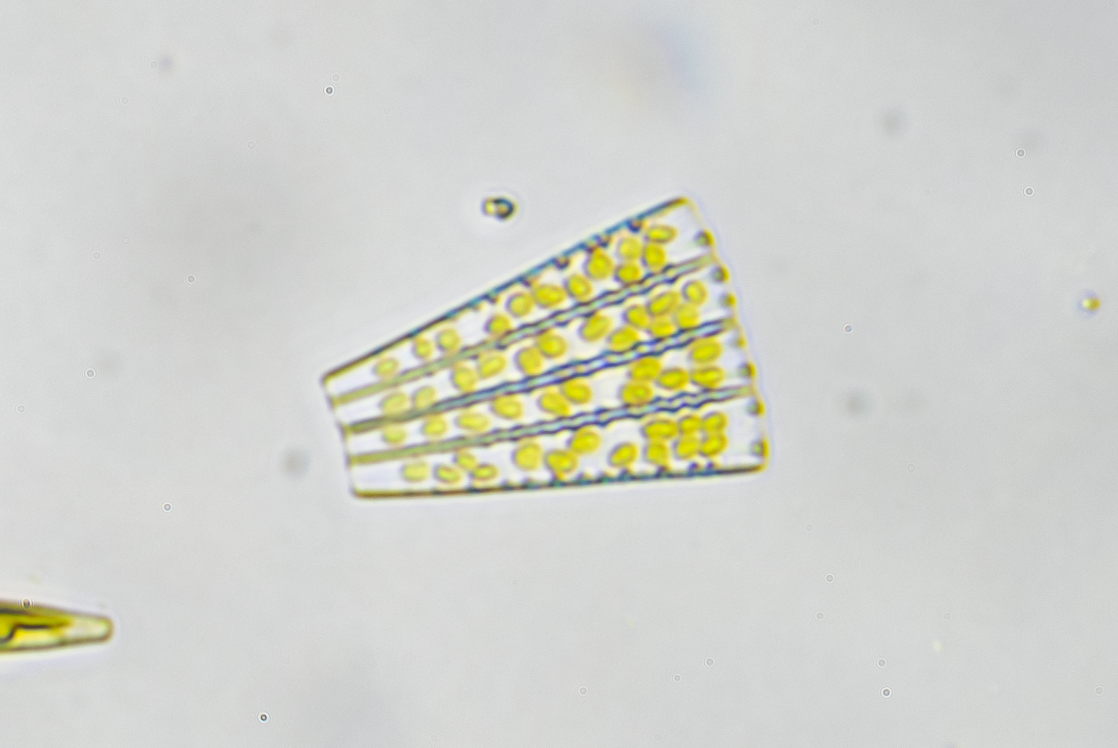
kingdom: Chromista
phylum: Ochrophyta
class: Bacillariophyceae
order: Fragilariales
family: Fragilariaceae
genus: Meridion
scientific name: Meridion circulare
